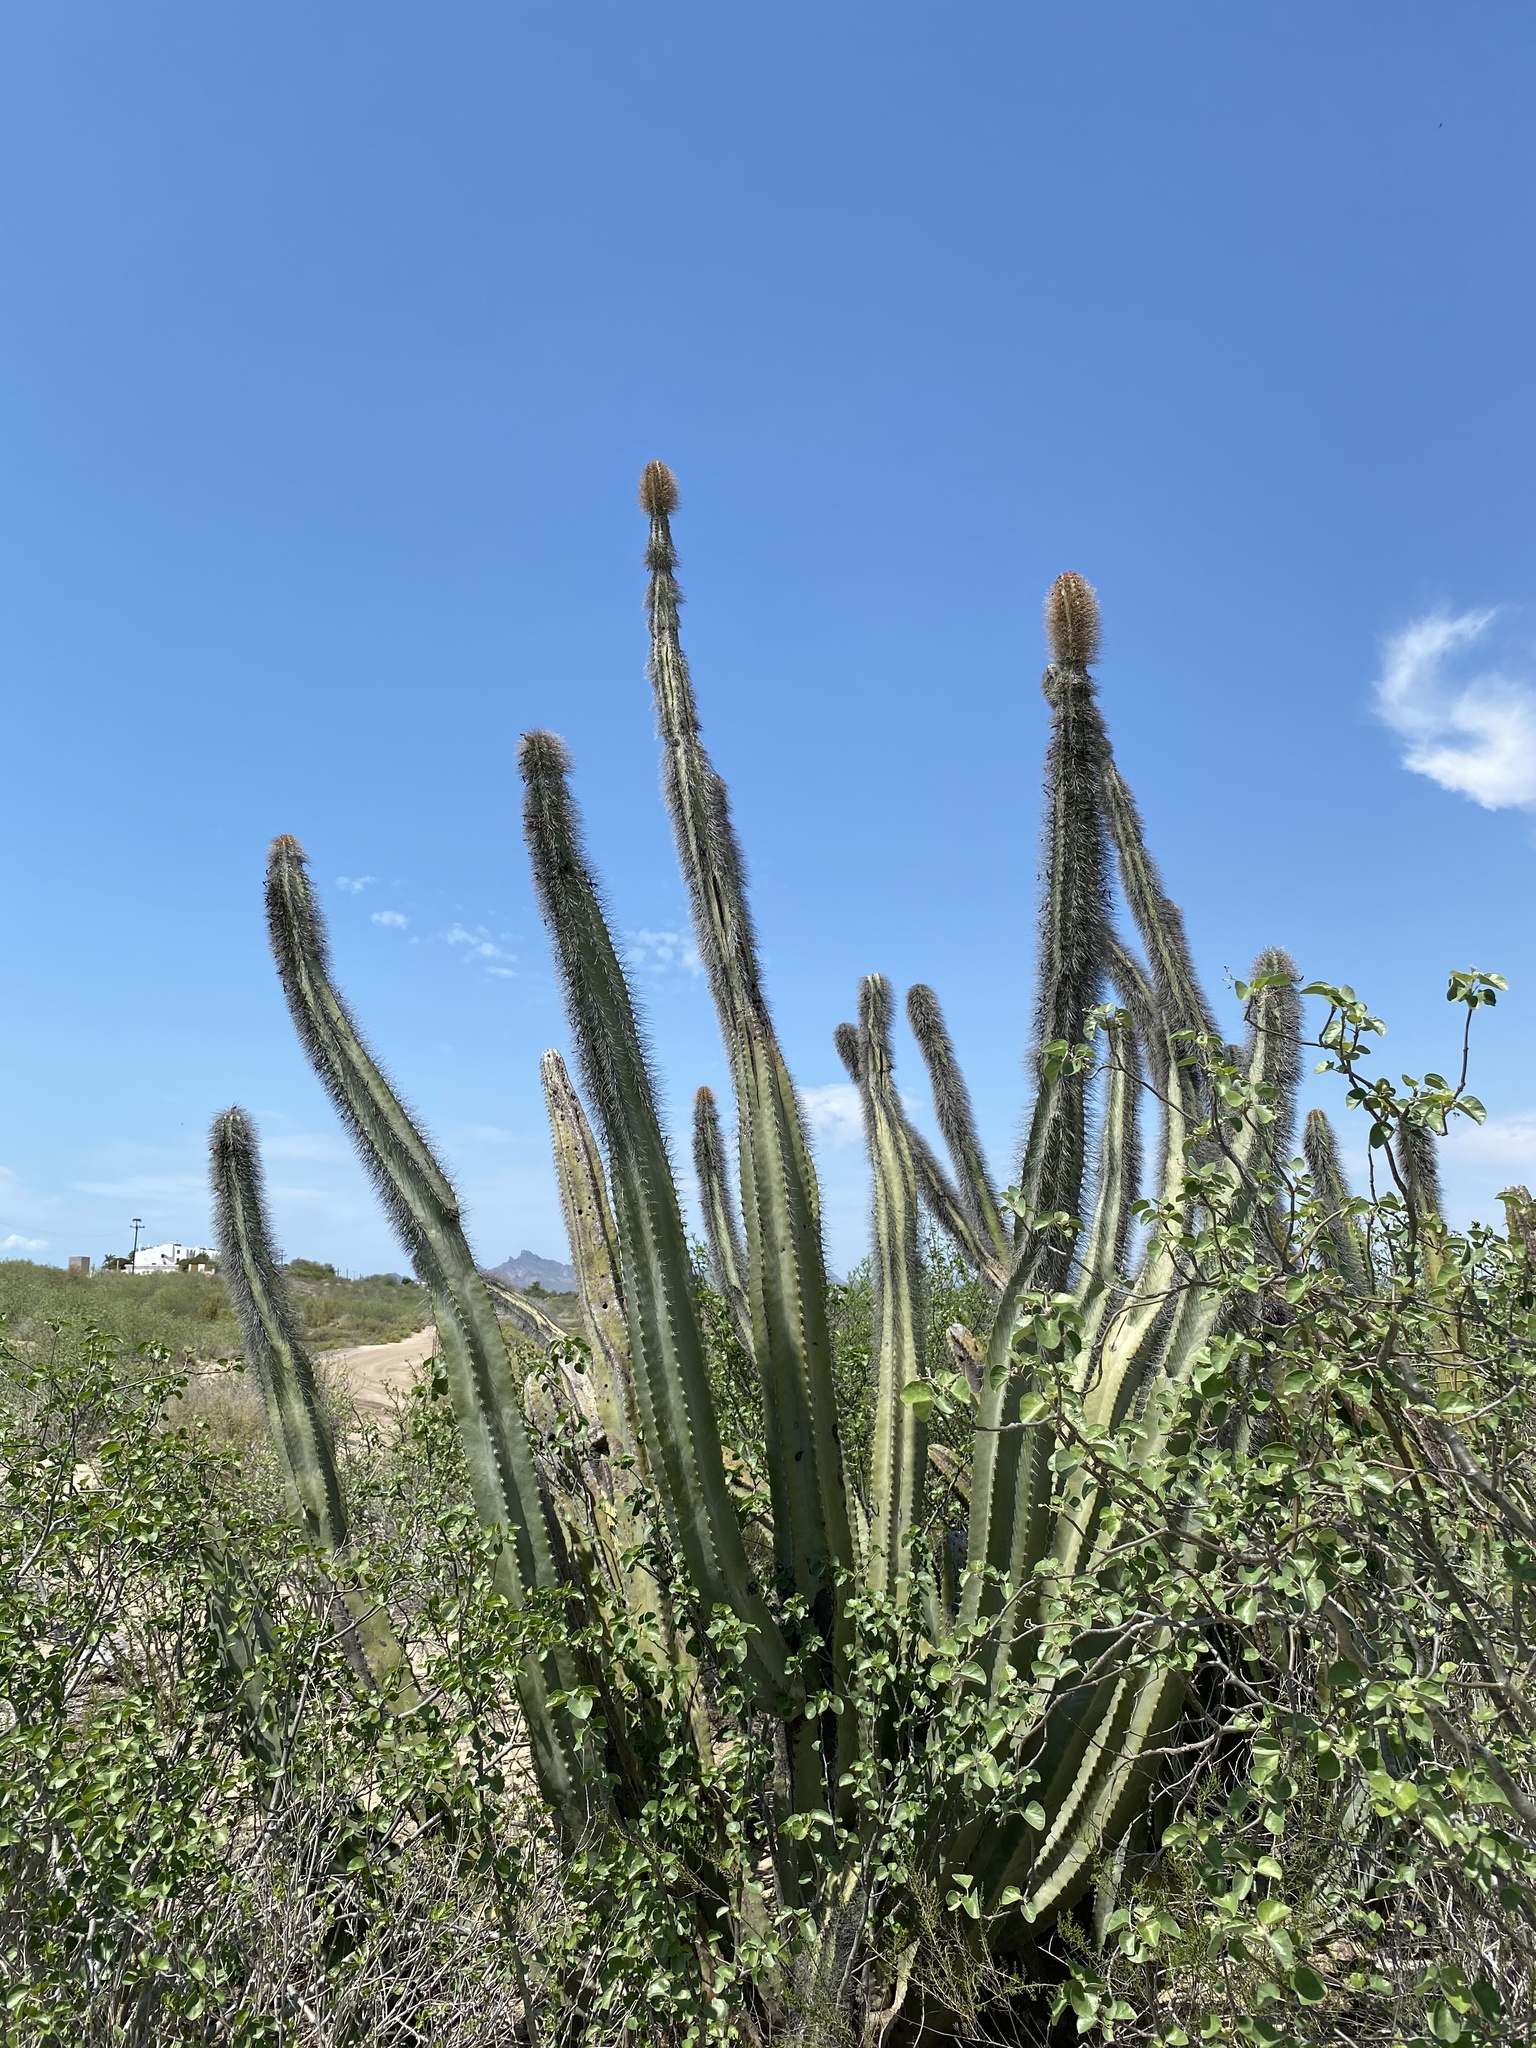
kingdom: Plantae
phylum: Tracheophyta
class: Magnoliopsida
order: Caryophyllales
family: Cactaceae
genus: Pachycereus
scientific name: Pachycereus schottii
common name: Senita cactus
